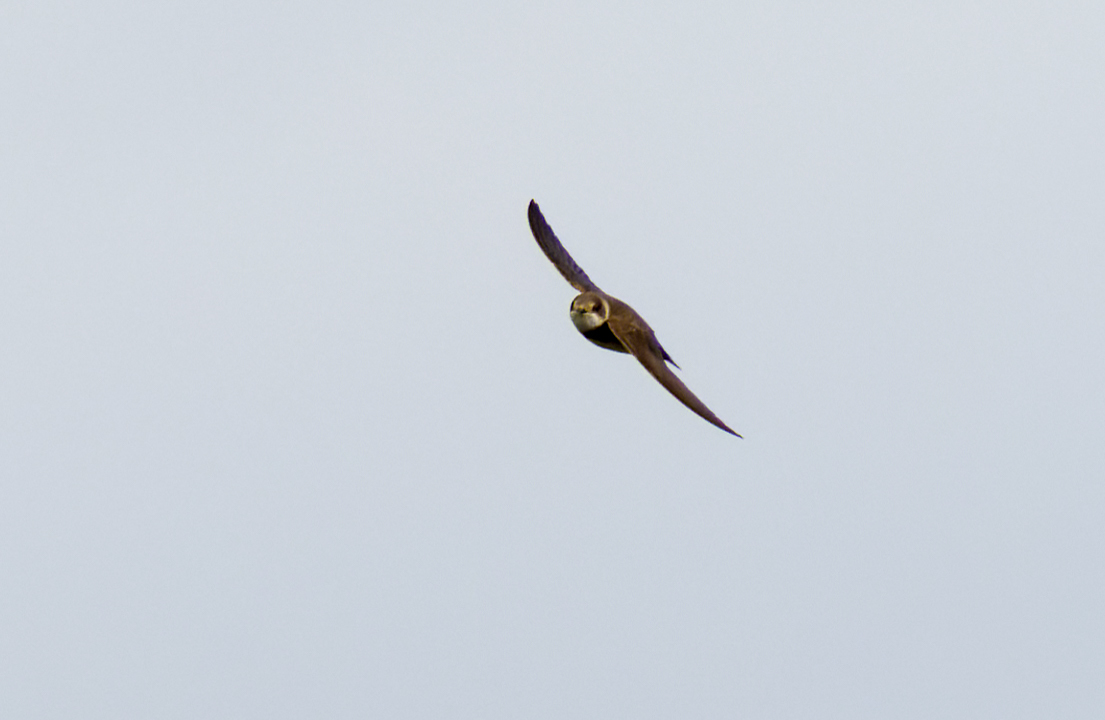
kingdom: Animalia
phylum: Chordata
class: Aves
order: Passeriformes
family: Hirundinidae
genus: Riparia
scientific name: Riparia riparia
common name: Sand martin
